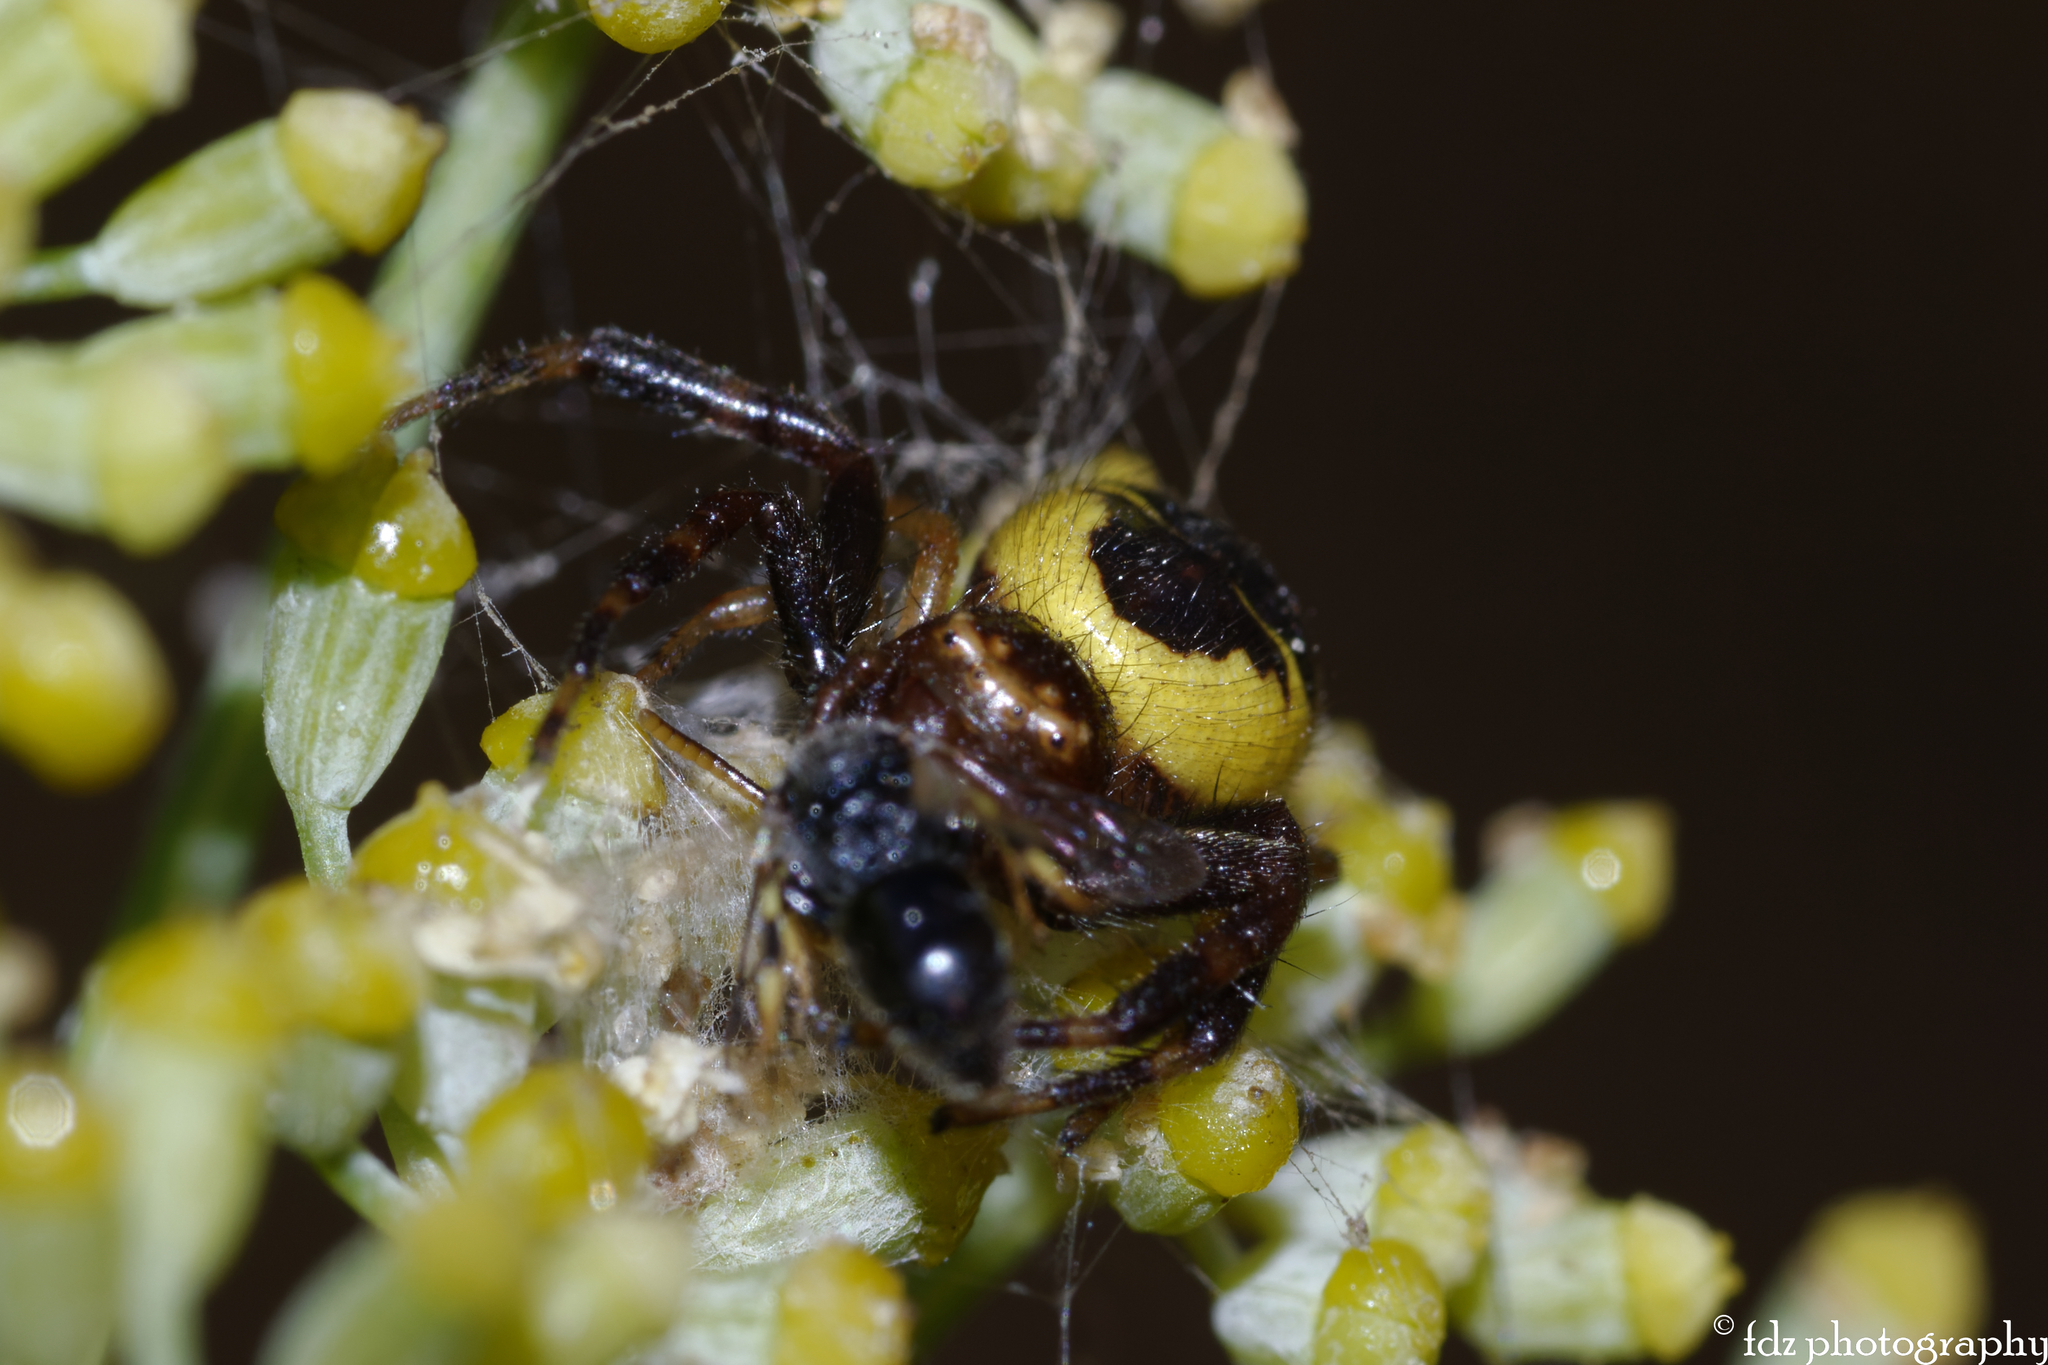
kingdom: Animalia
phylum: Arthropoda
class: Arachnida
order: Araneae
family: Thomisidae
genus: Synema
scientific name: Synema globosum
